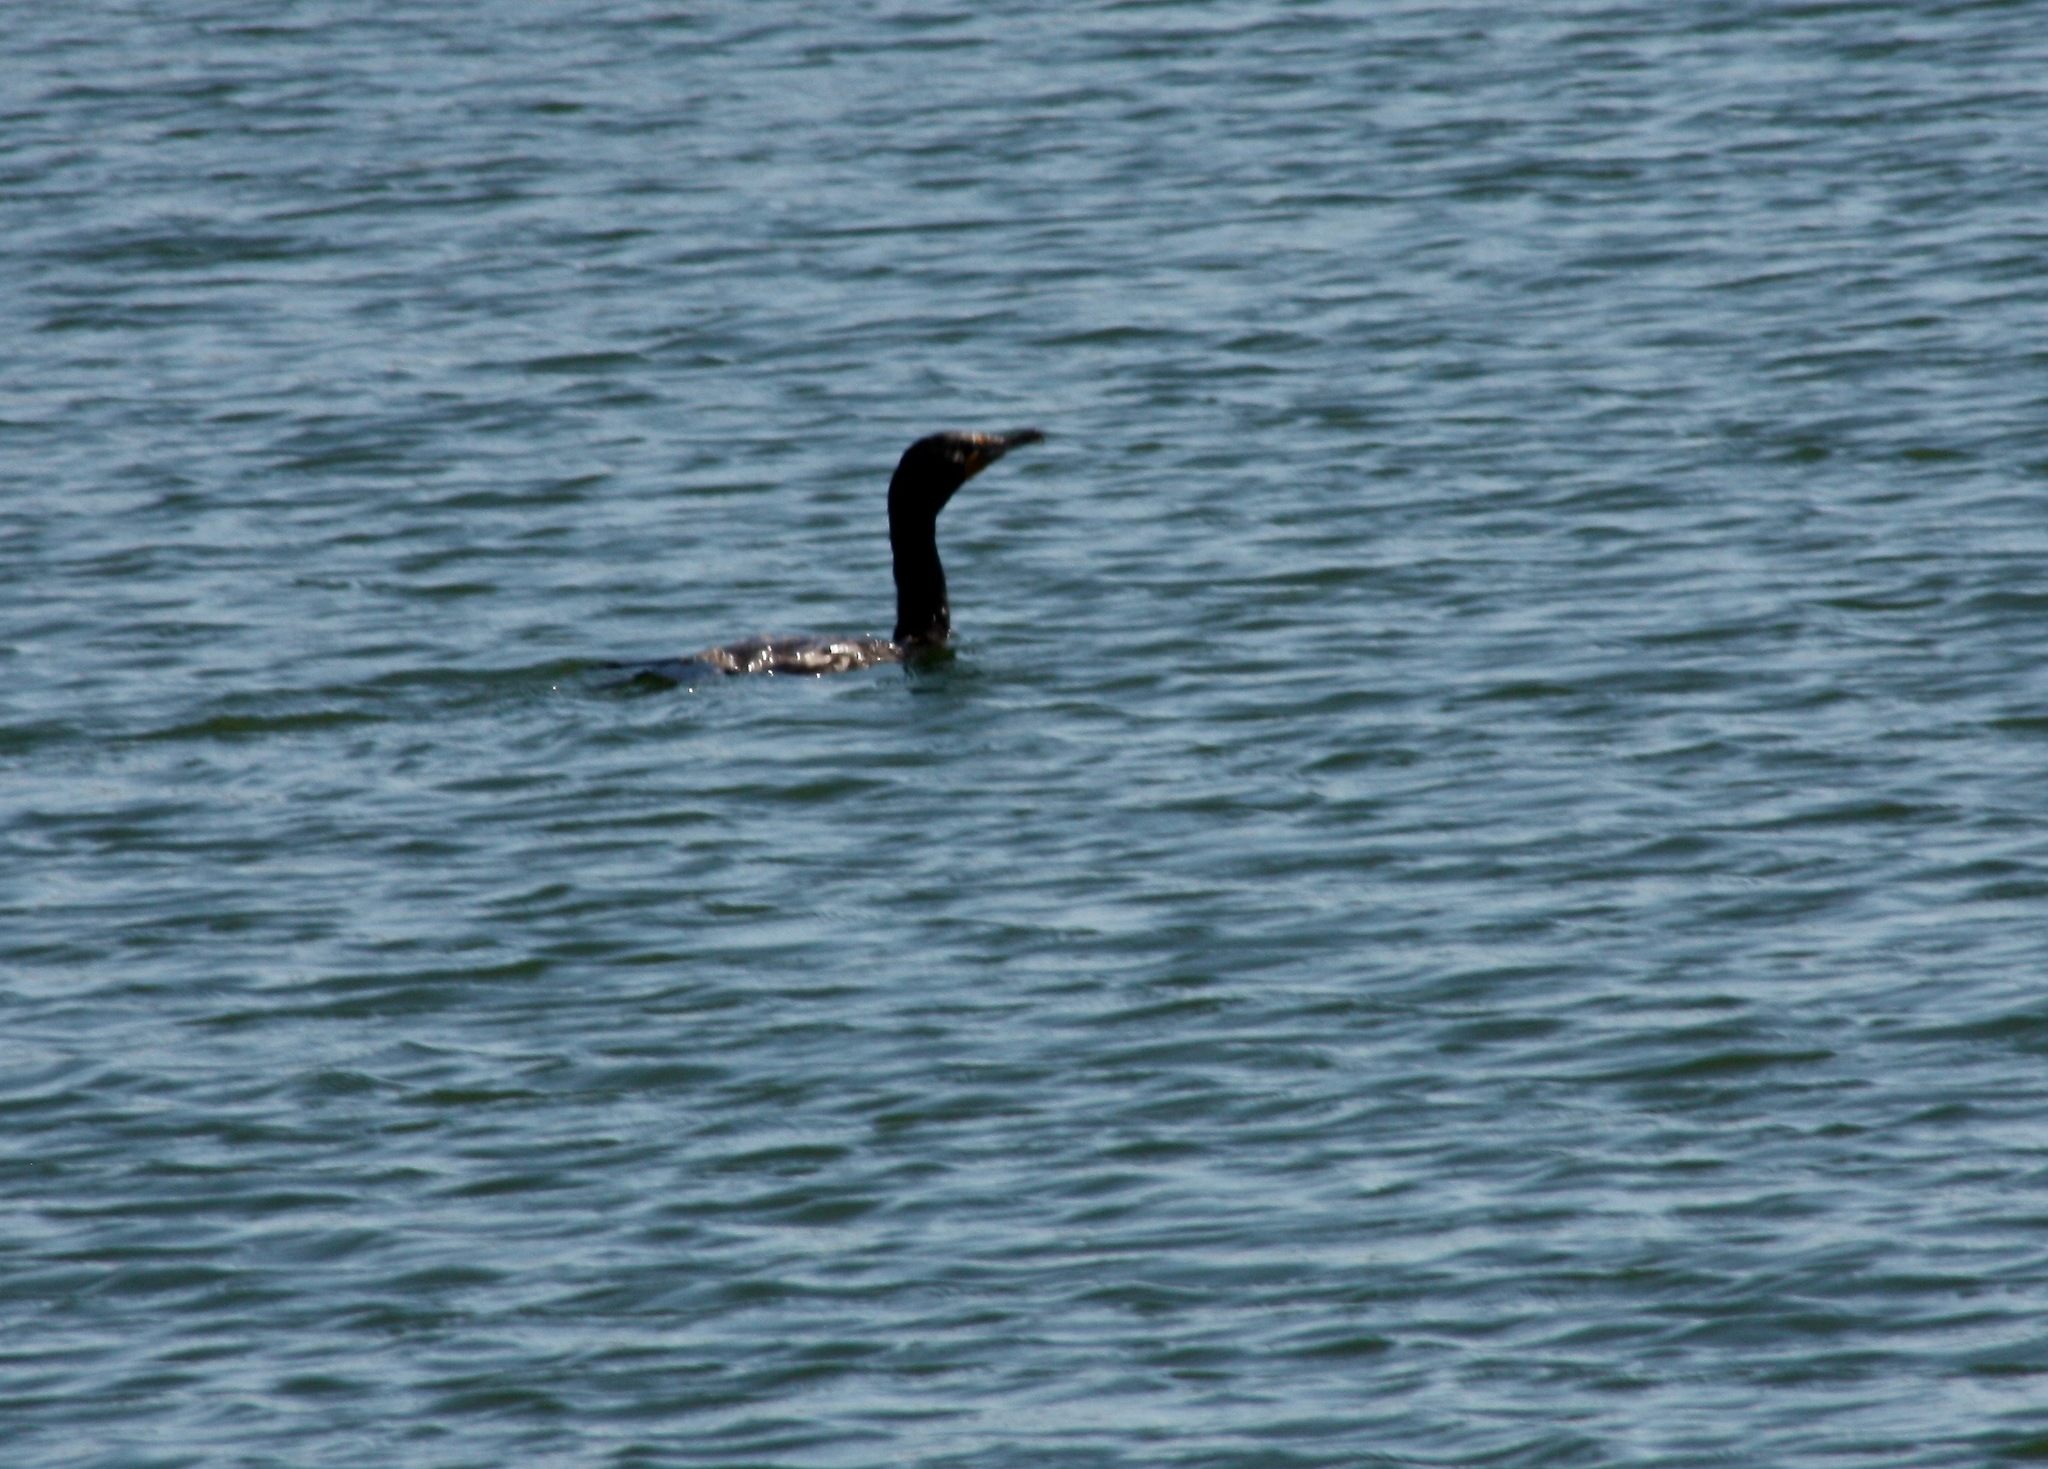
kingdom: Animalia
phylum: Chordata
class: Aves
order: Suliformes
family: Phalacrocoracidae
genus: Phalacrocorax
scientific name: Phalacrocorax auritus
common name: Double-crested cormorant
